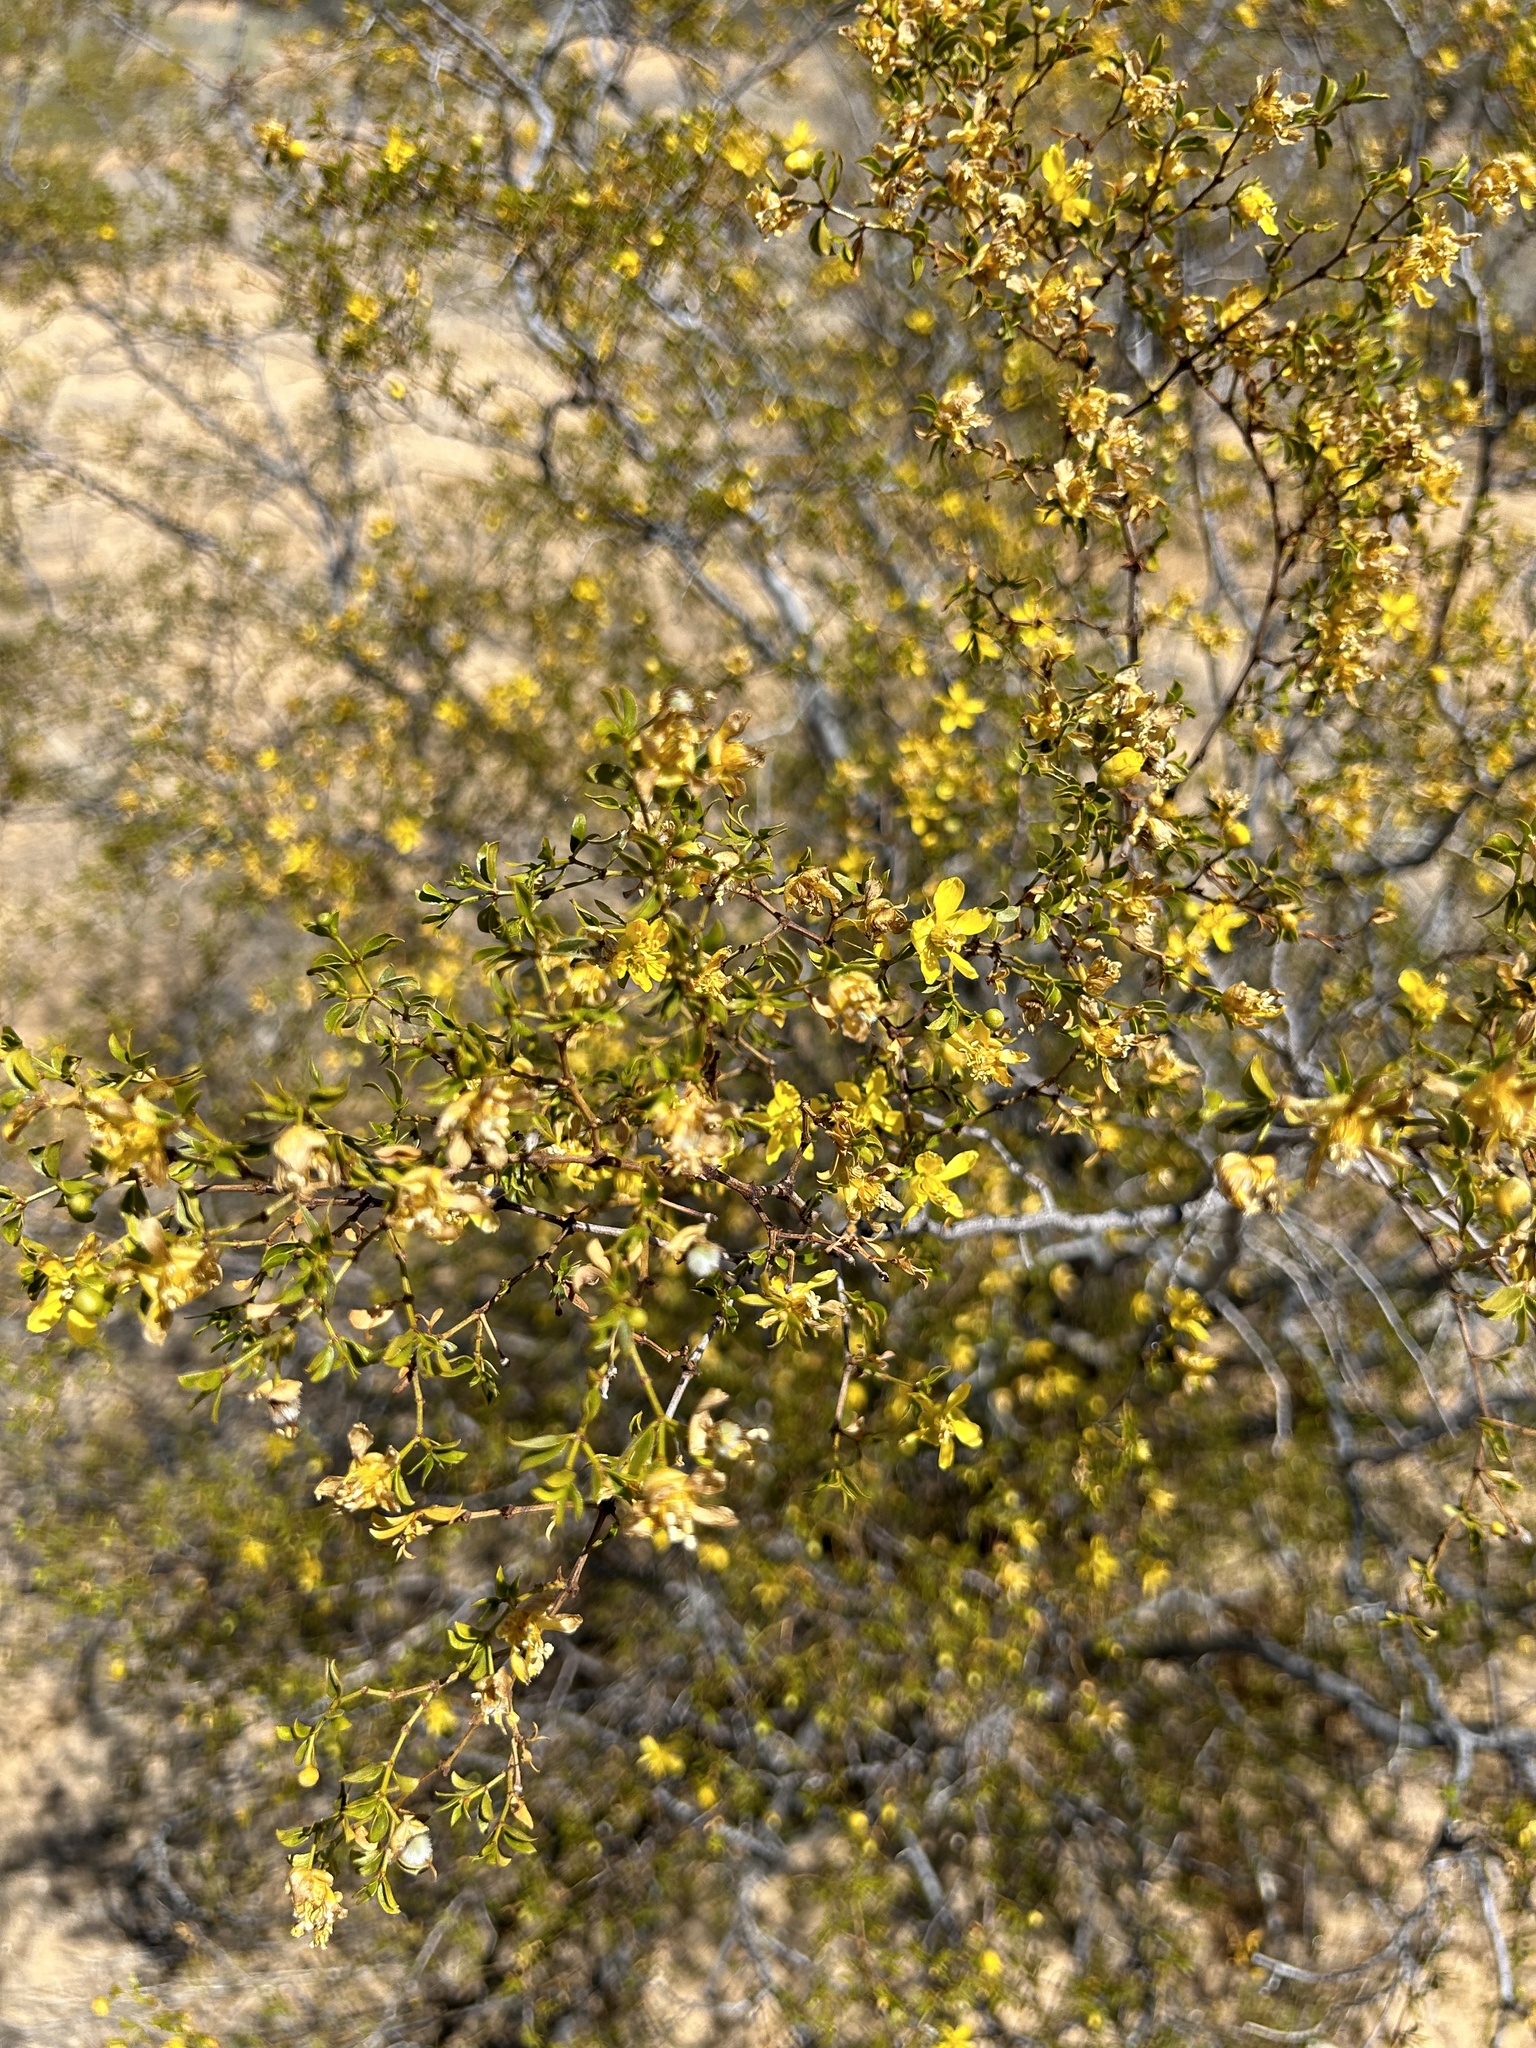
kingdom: Plantae
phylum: Tracheophyta
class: Magnoliopsida
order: Zygophyllales
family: Zygophyllaceae
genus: Larrea
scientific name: Larrea tridentata
